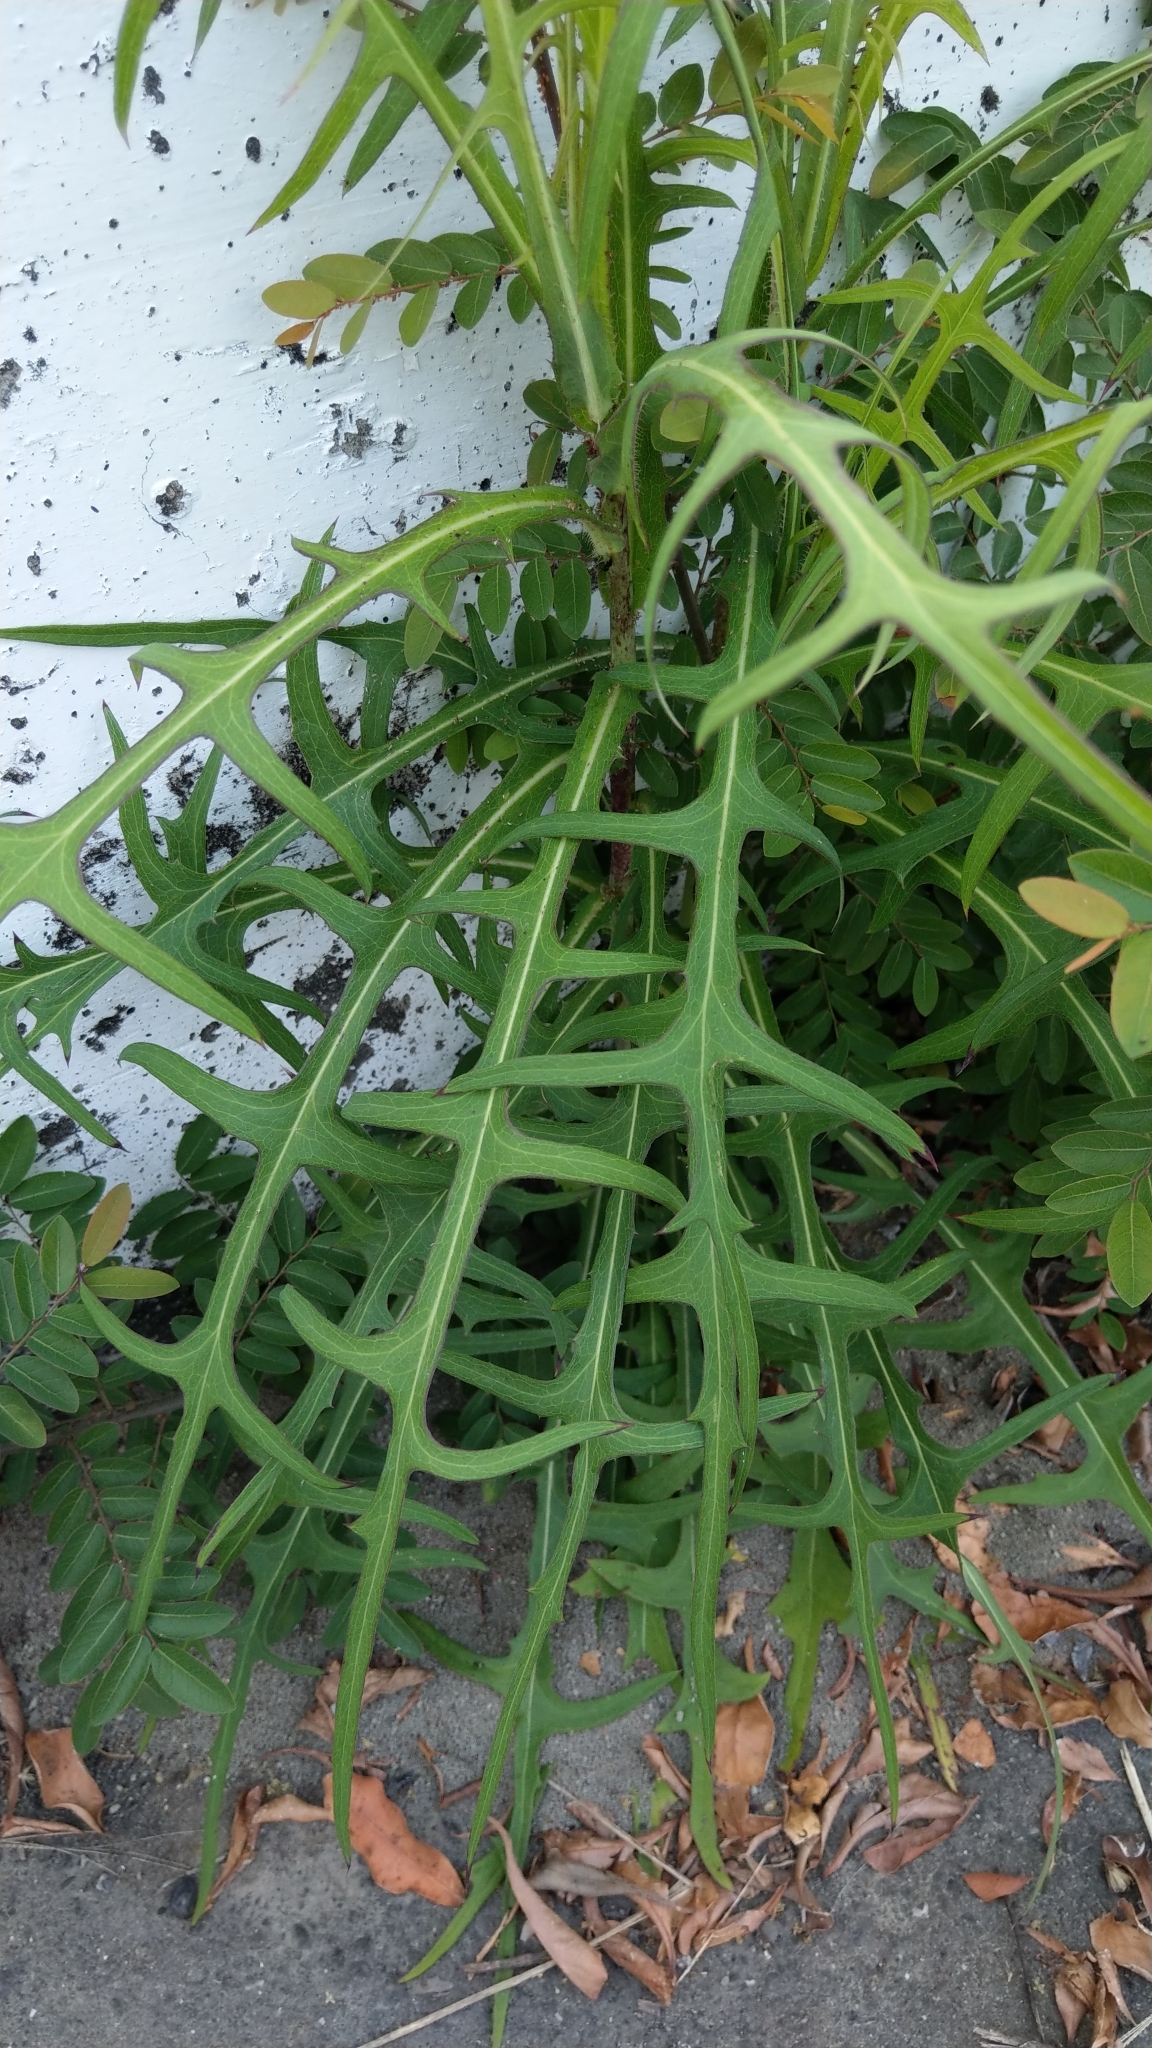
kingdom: Plantae
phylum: Tracheophyta
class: Magnoliopsida
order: Asterales
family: Asteraceae
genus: Lactuca
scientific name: Lactuca indica
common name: Wild lettuce
